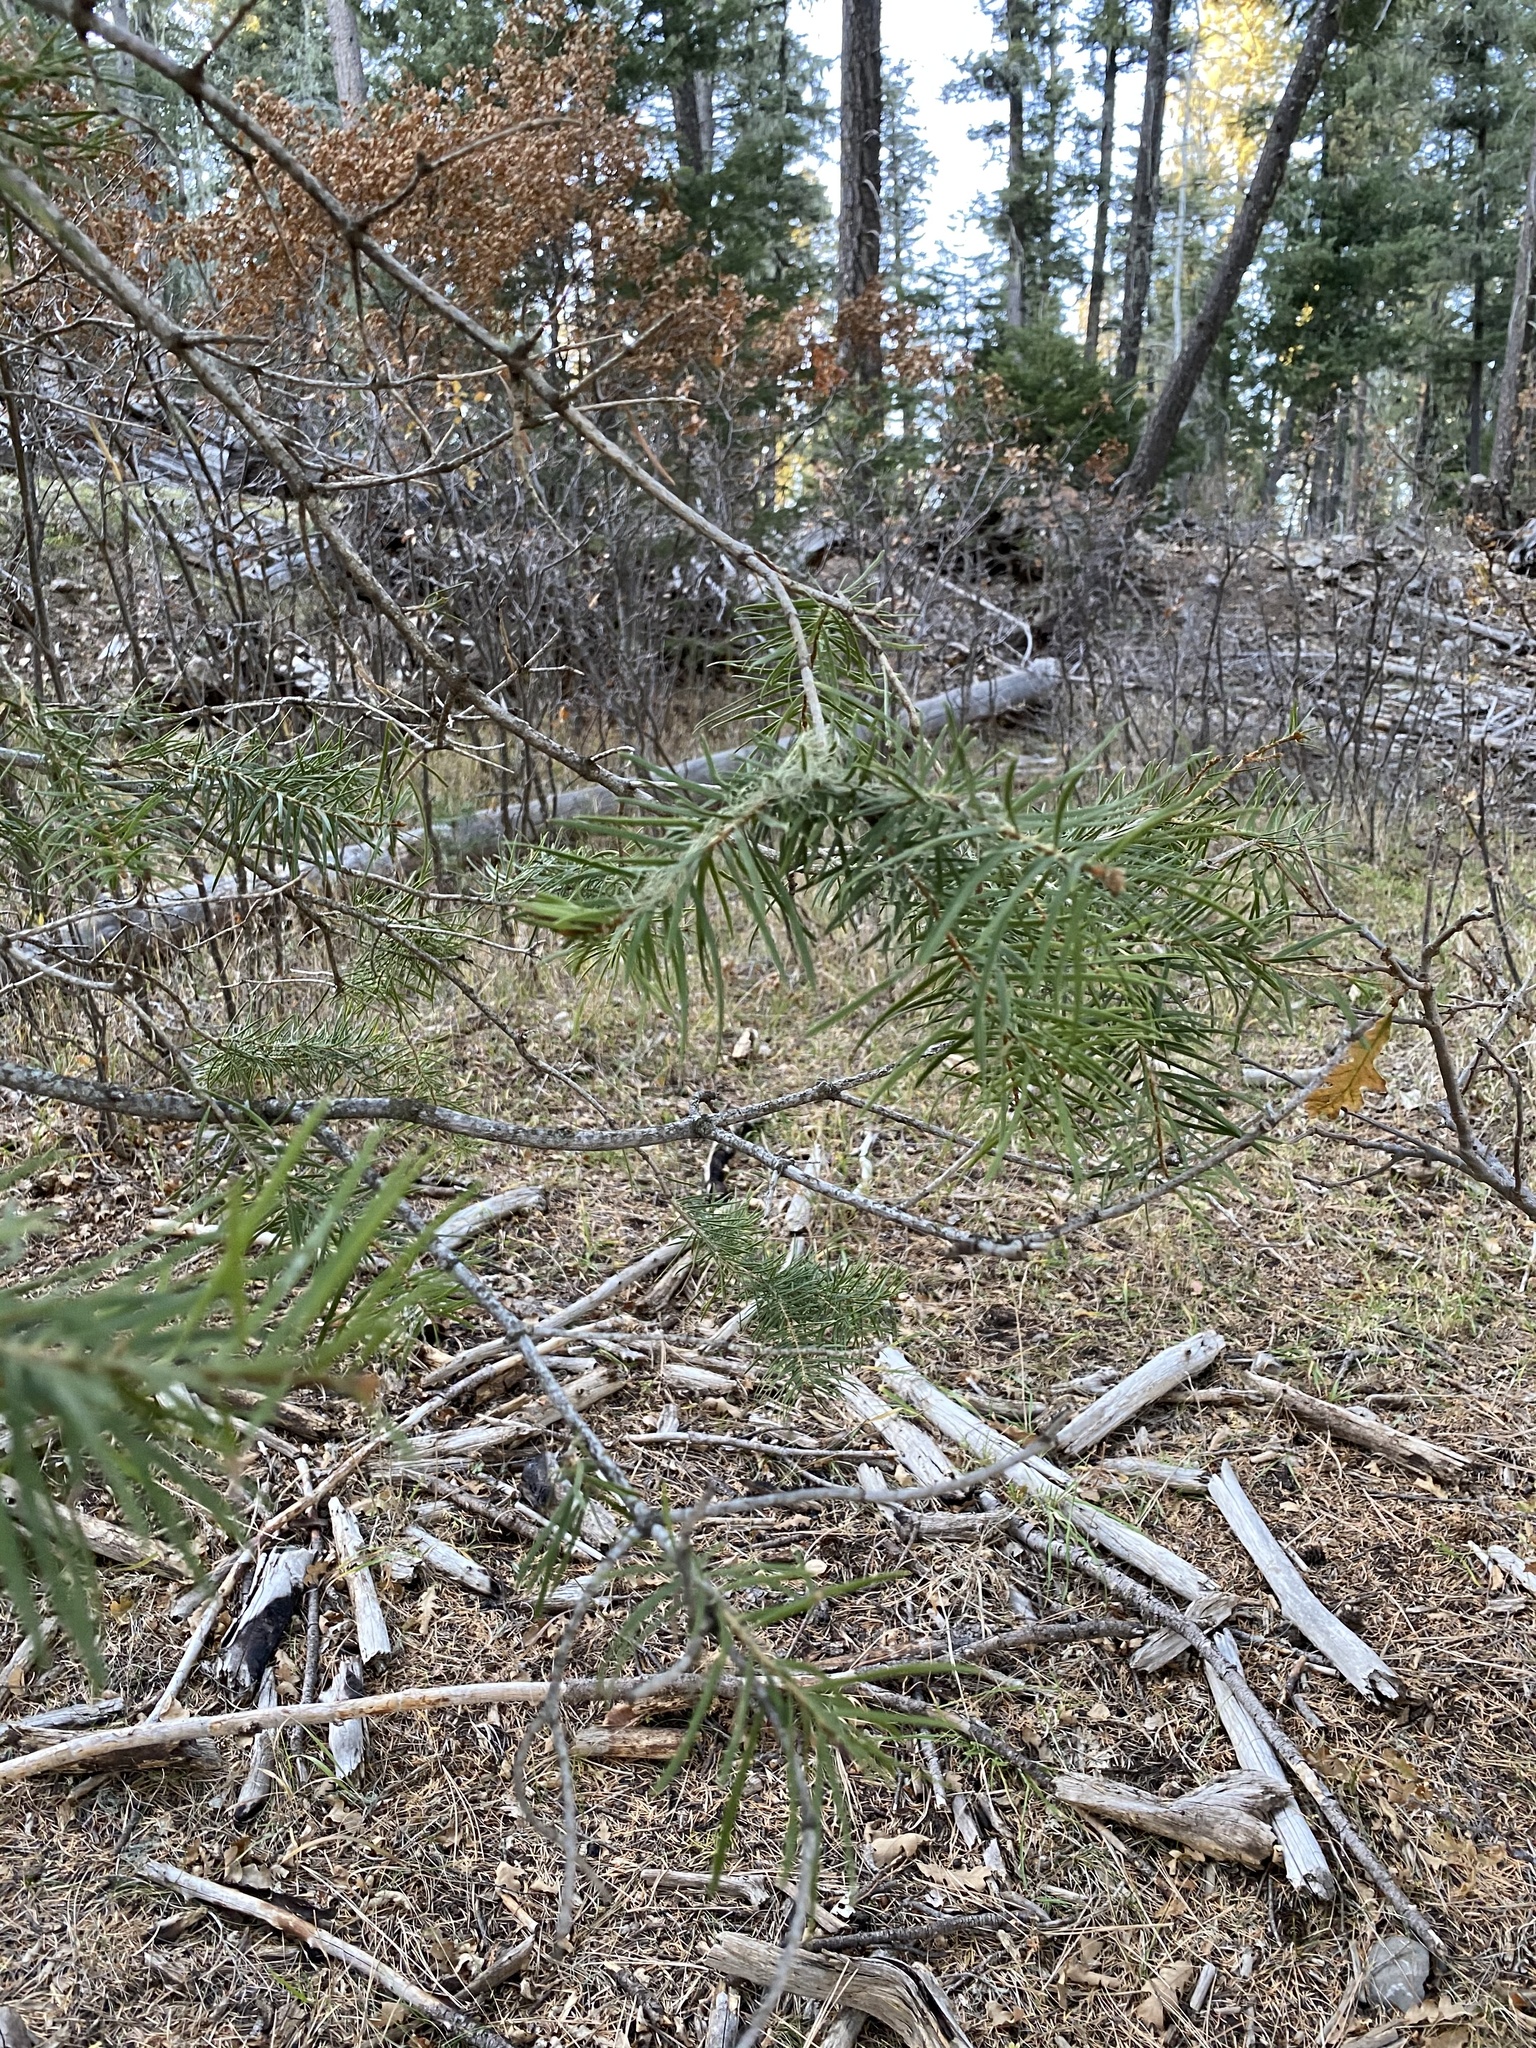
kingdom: Plantae
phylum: Tracheophyta
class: Pinopsida
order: Pinales
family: Pinaceae
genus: Abies
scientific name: Abies concolor
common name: Colorado fir
